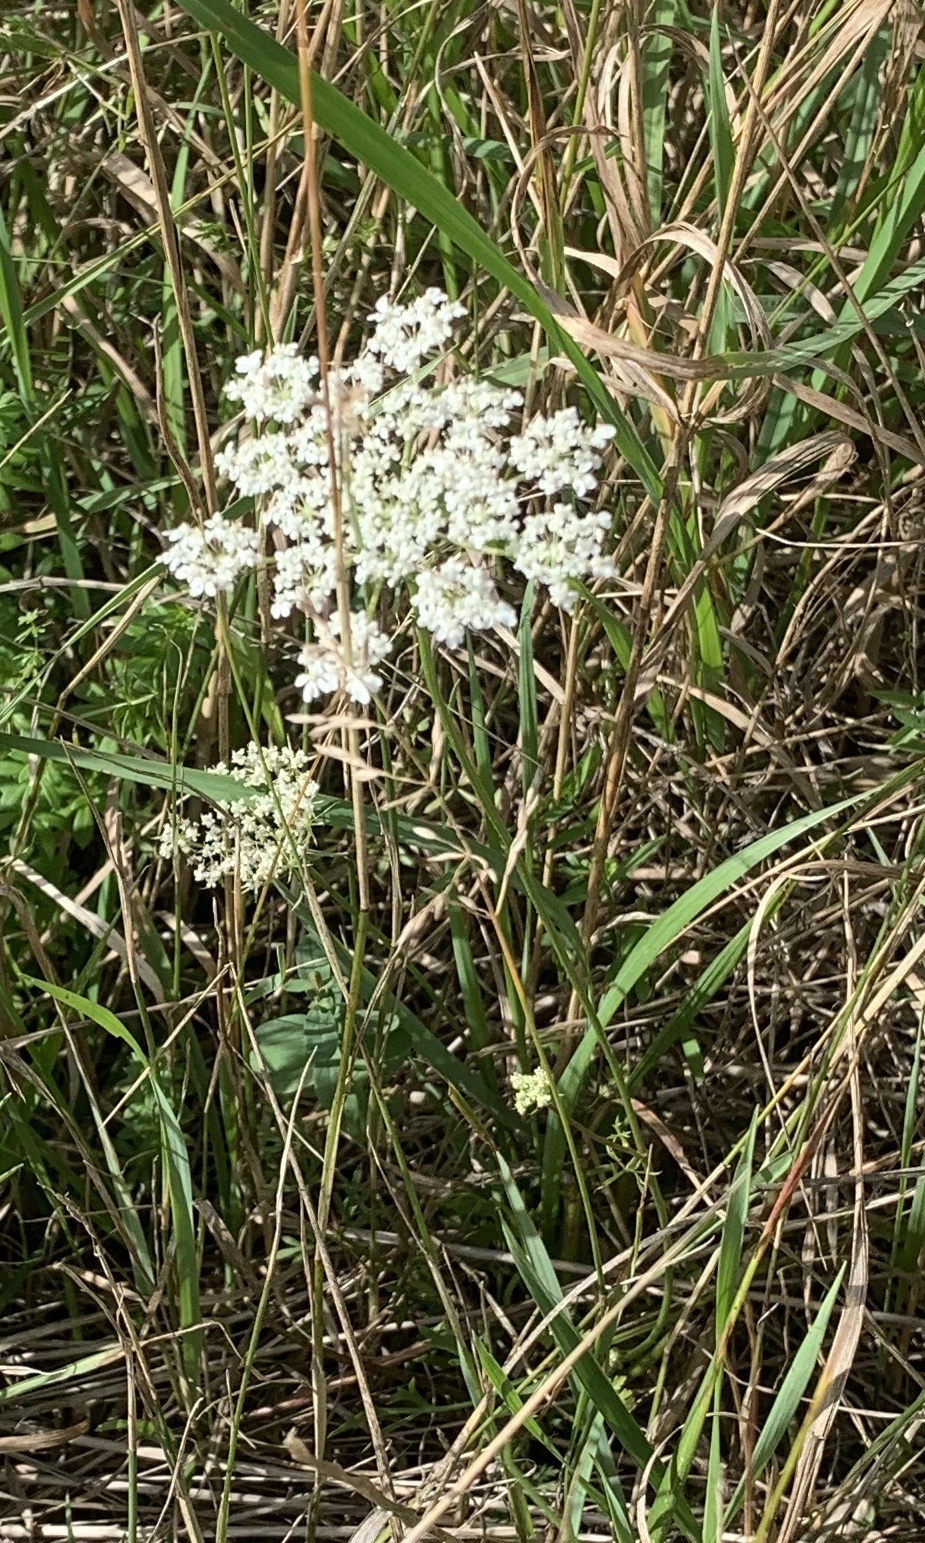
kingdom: Plantae
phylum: Tracheophyta
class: Magnoliopsida
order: Apiales
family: Apiaceae
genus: Daucus
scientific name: Daucus carota
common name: Wild carrot
